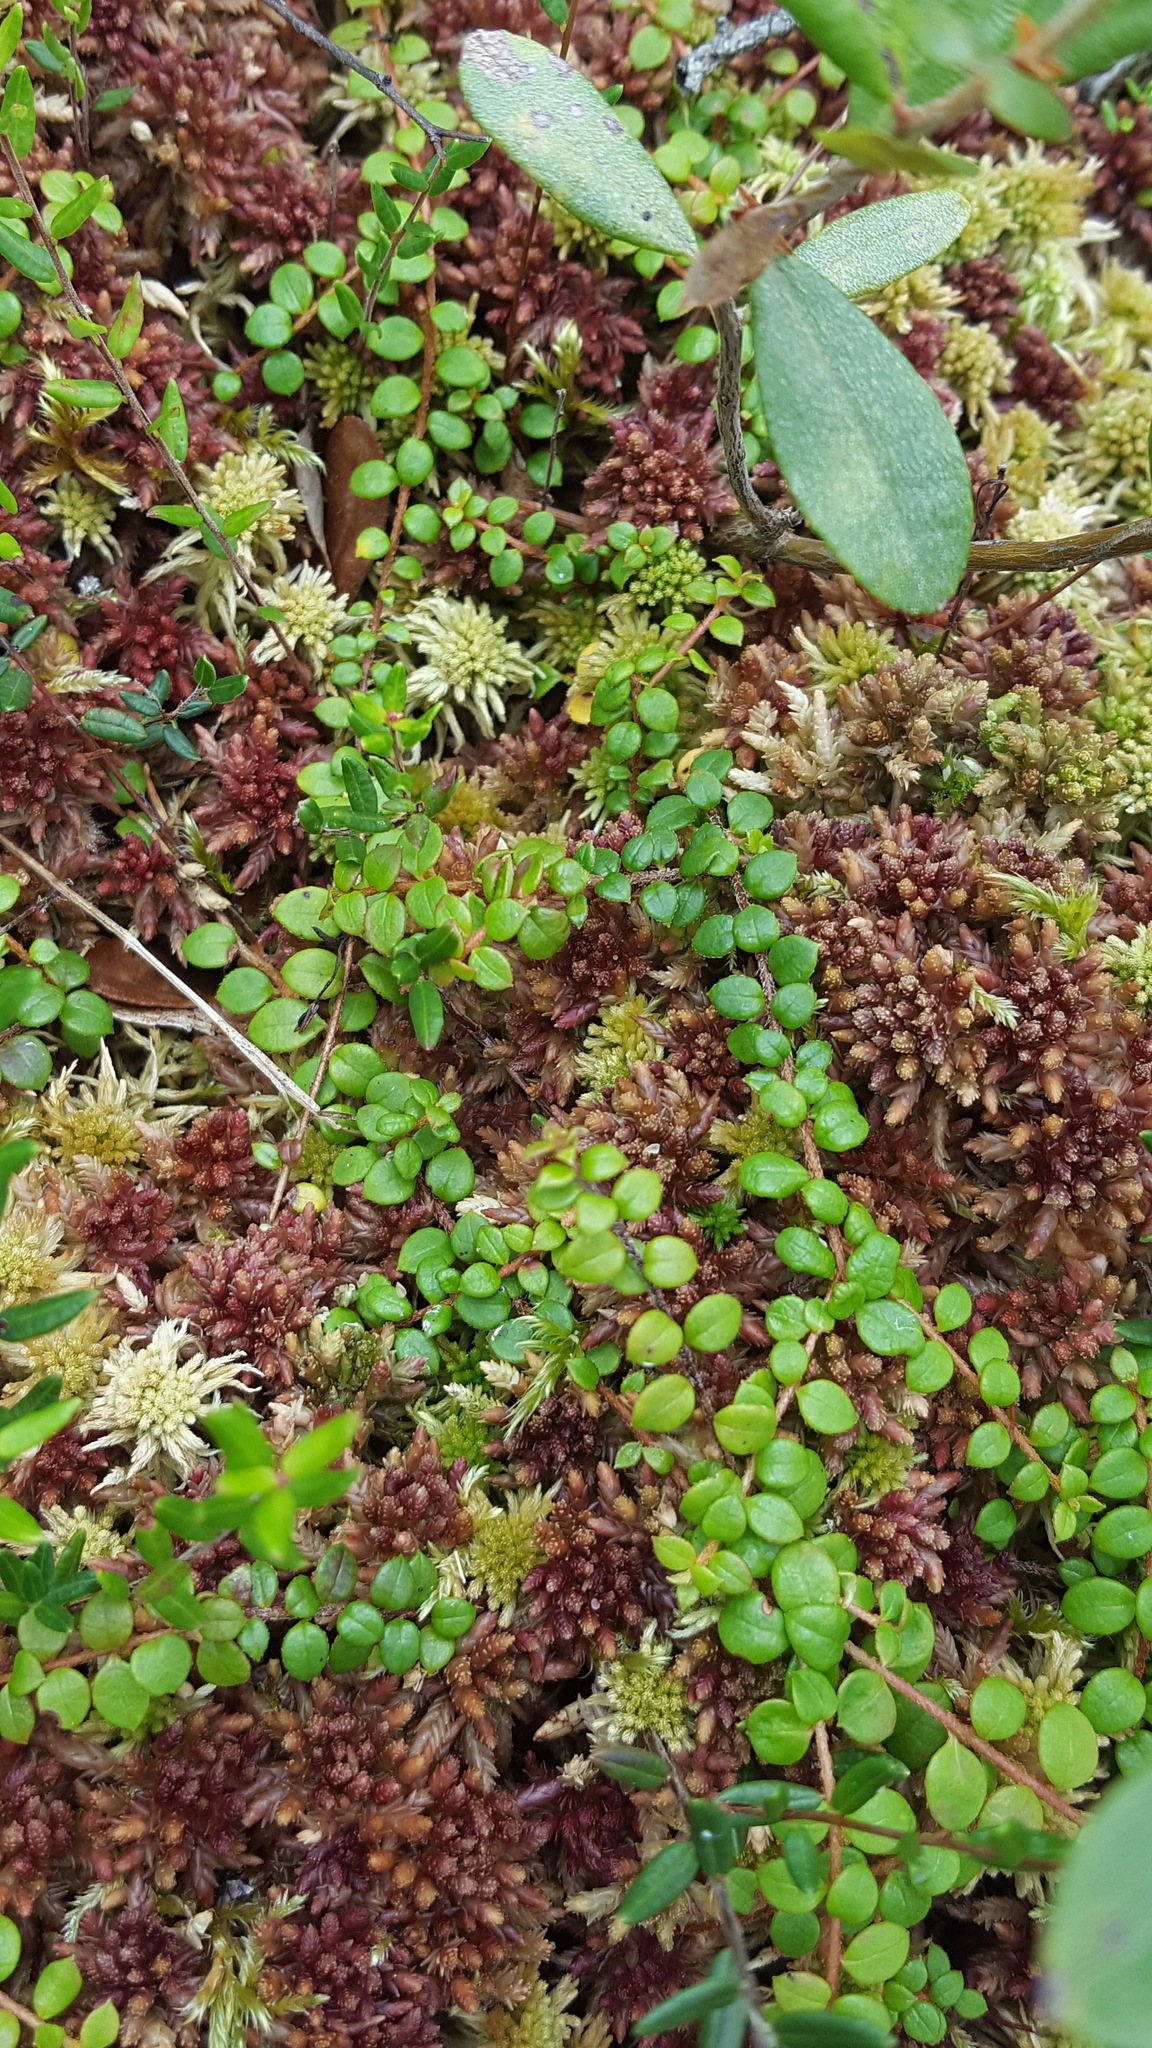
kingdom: Plantae
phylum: Tracheophyta
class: Magnoliopsida
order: Ericales
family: Ericaceae
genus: Gaultheria
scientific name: Gaultheria hispidula
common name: Cancer wintergreen
